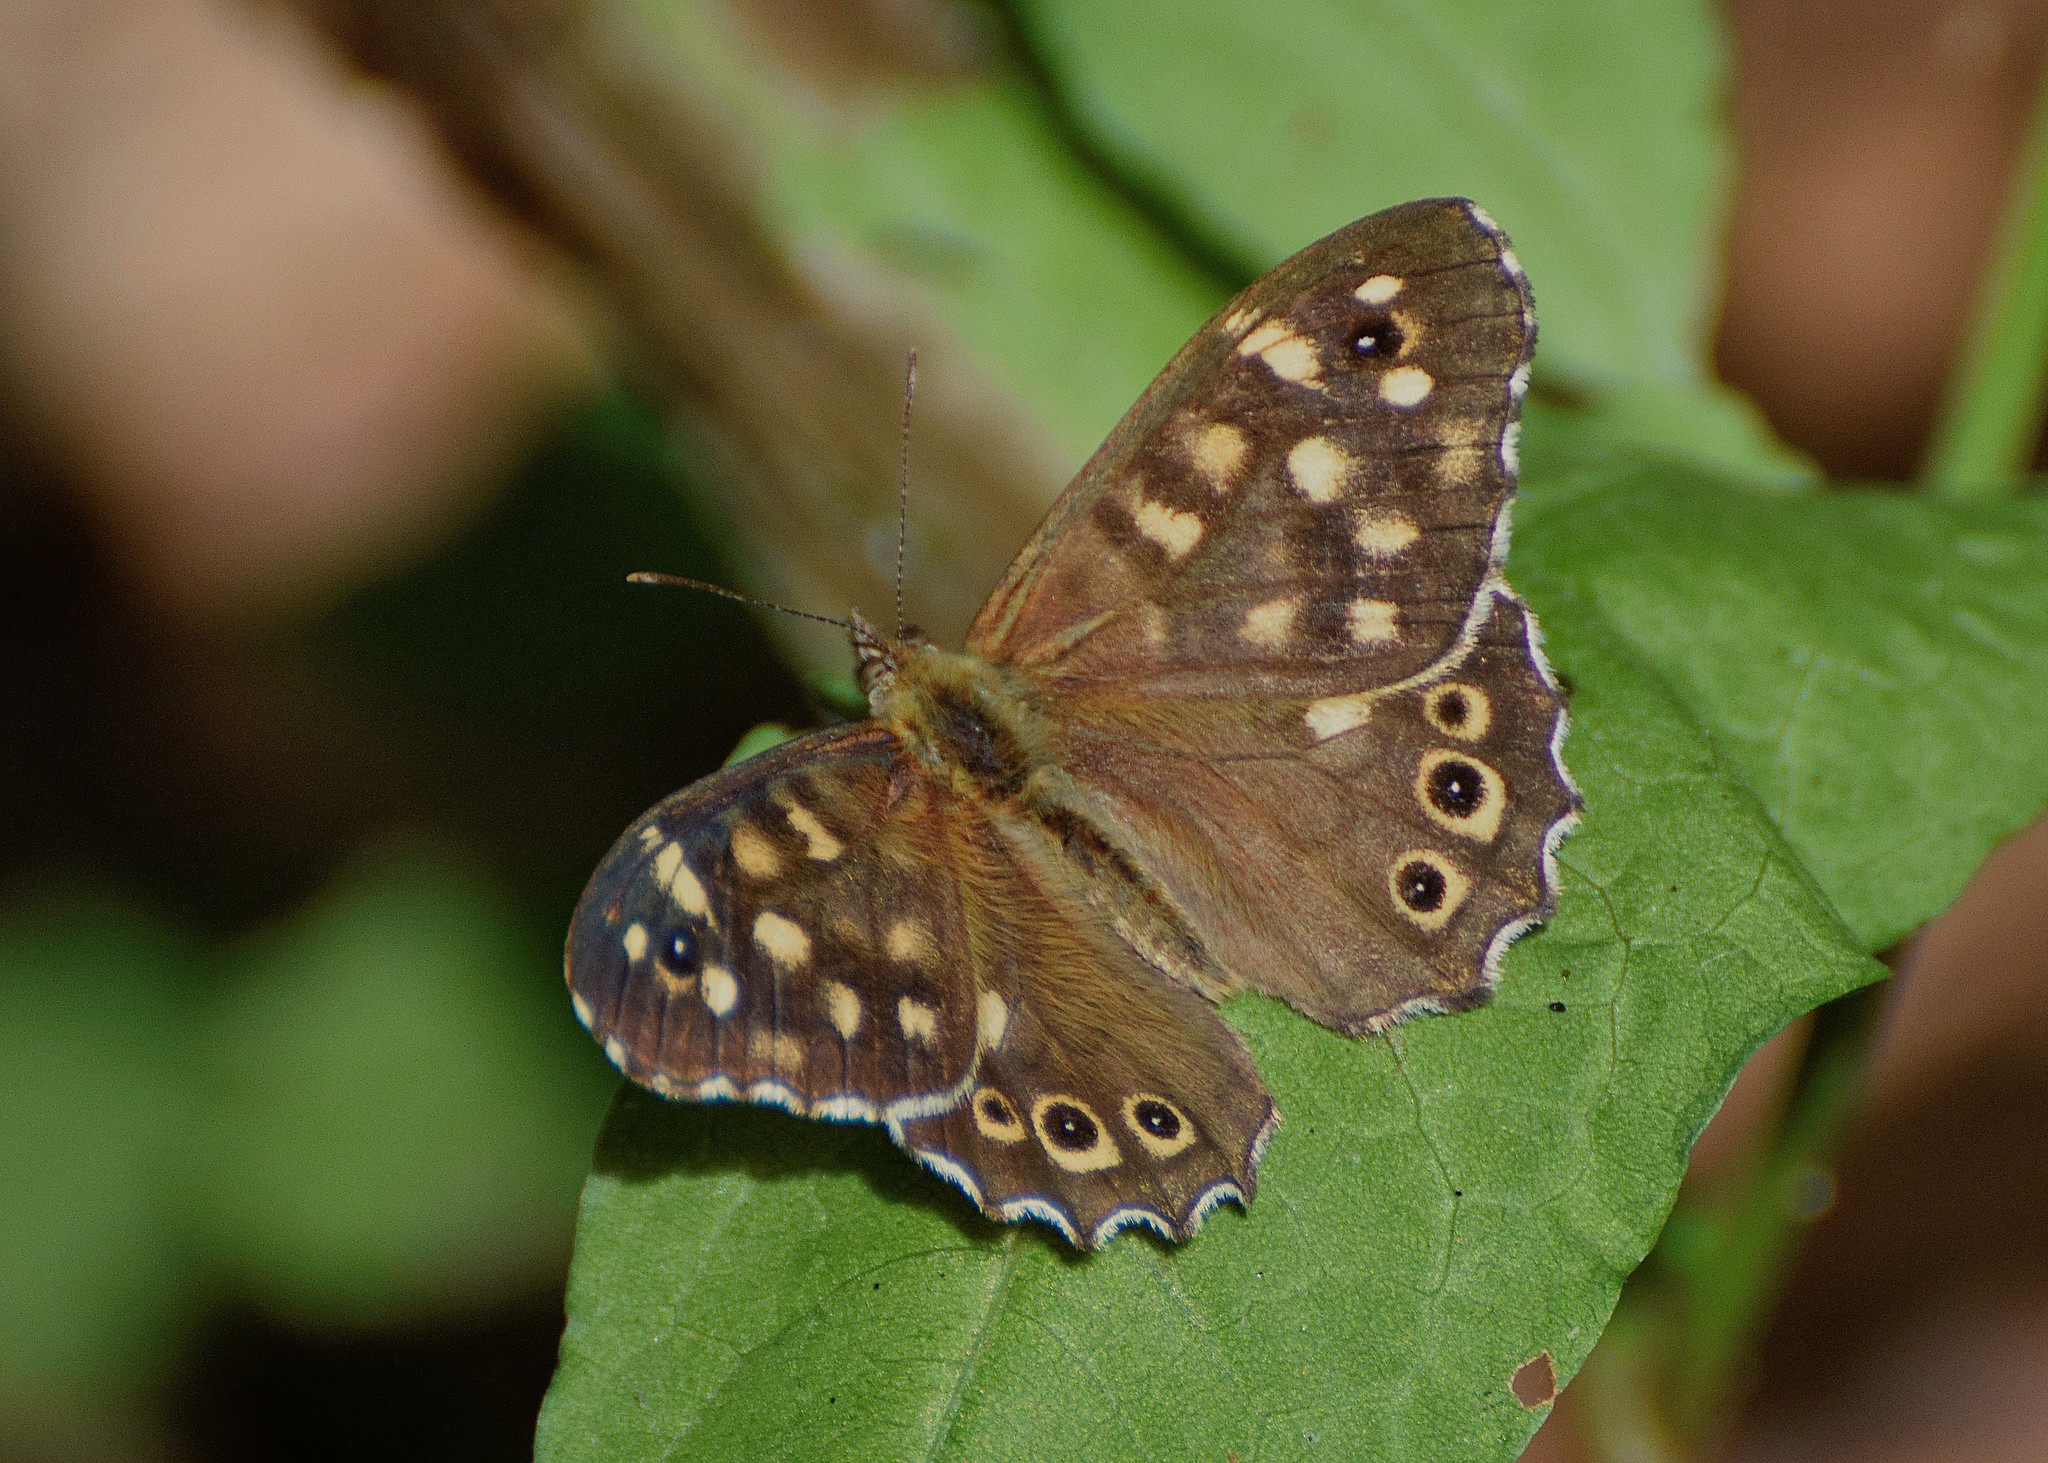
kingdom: Animalia
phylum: Arthropoda
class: Insecta
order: Lepidoptera
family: Nymphalidae
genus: Pararge
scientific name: Pararge aegeria
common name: Speckled wood
